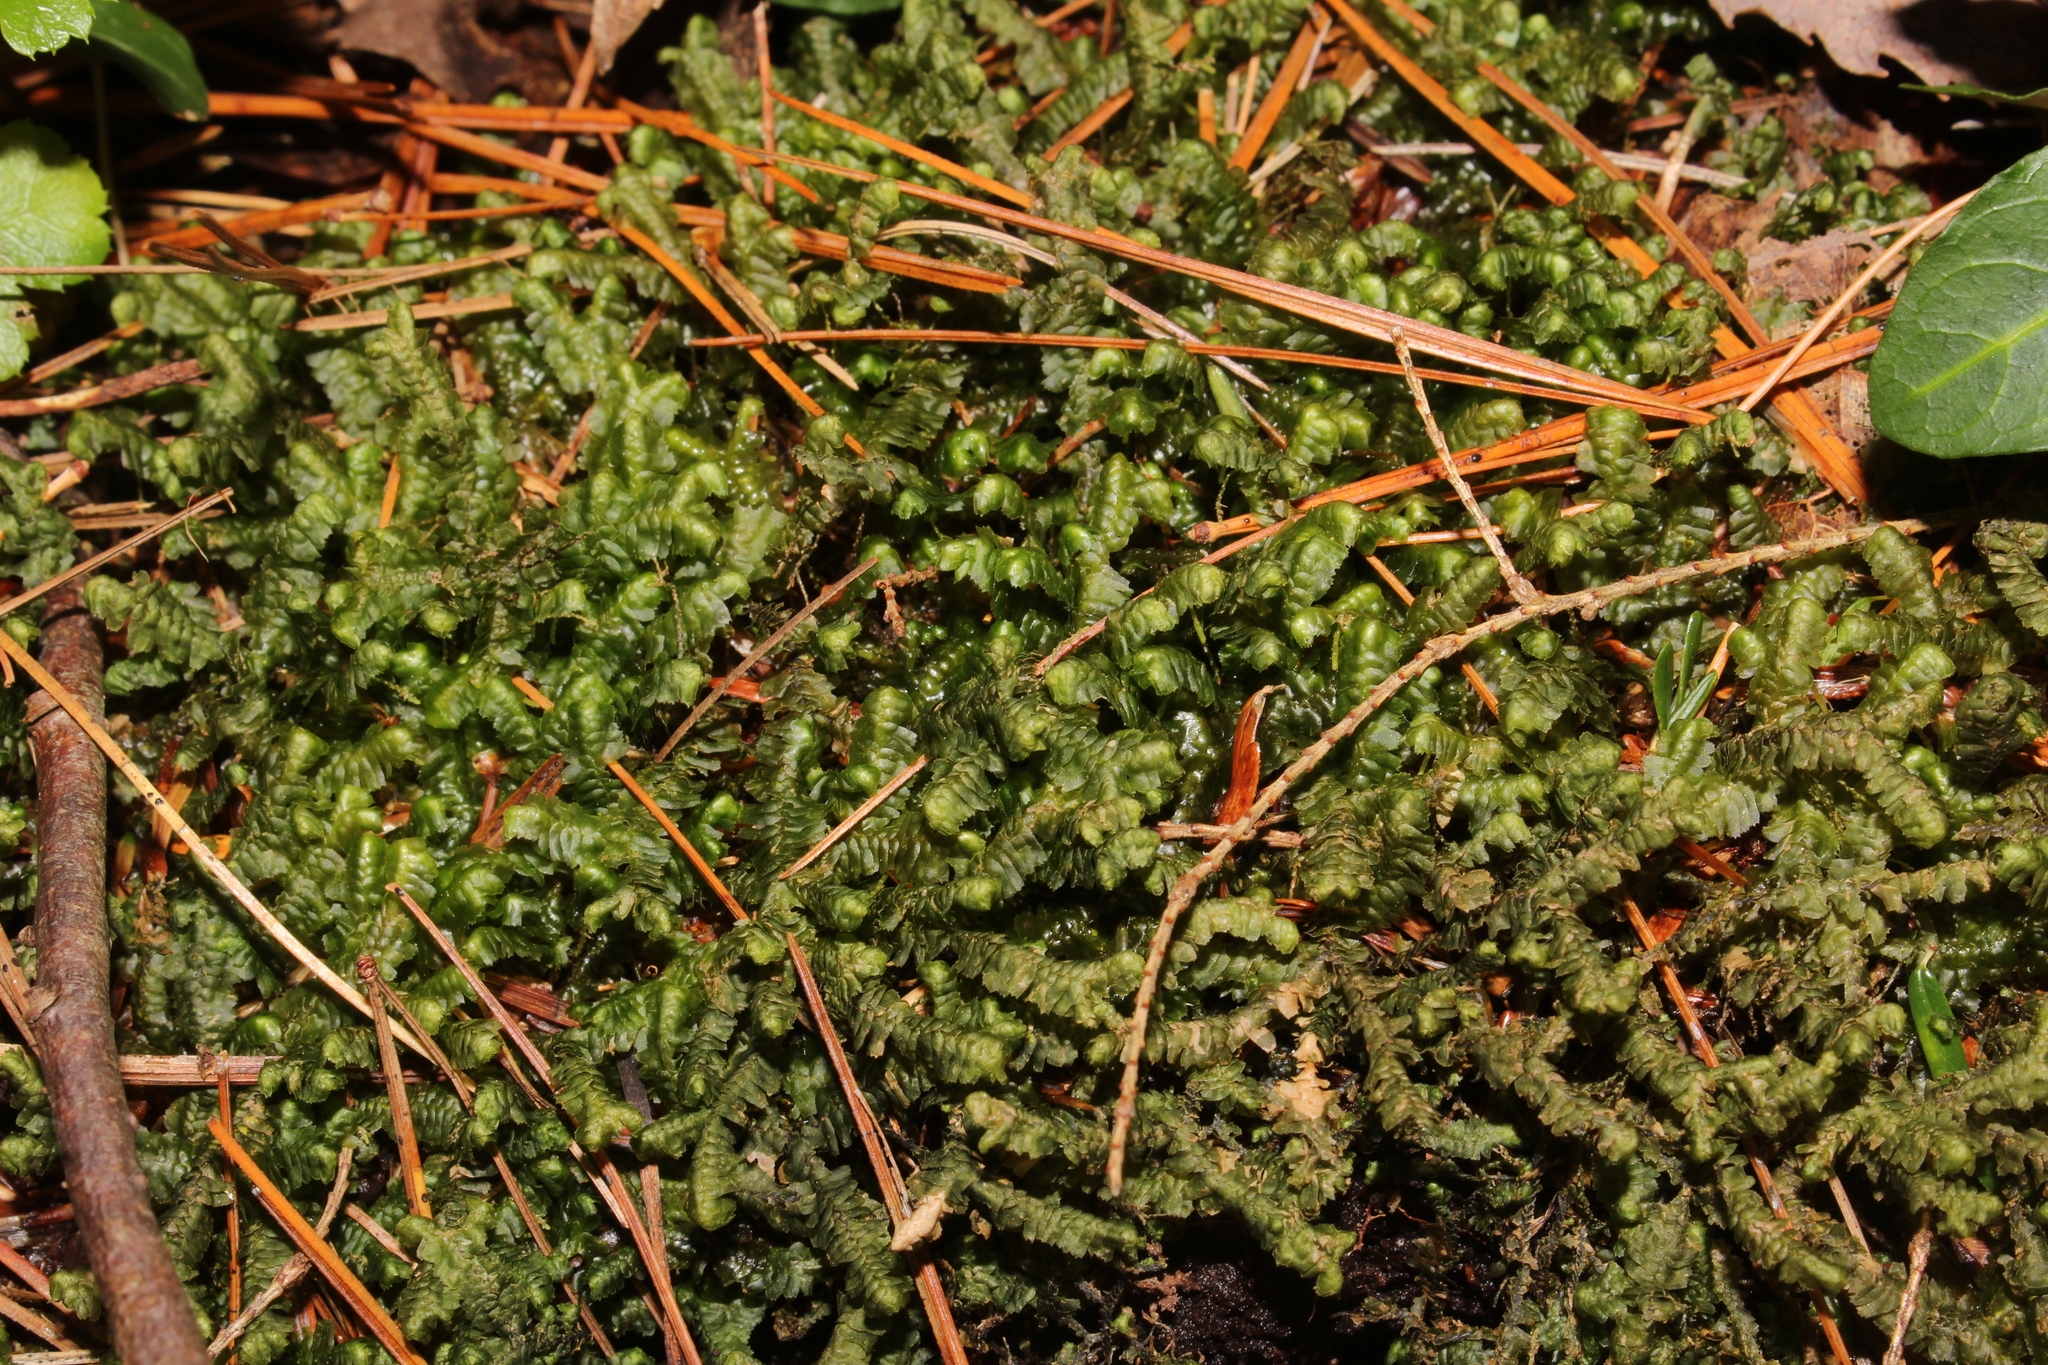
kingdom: Plantae
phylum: Marchantiophyta
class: Jungermanniopsida
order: Jungermanniales
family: Lepidoziaceae
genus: Bazzania
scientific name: Bazzania trilobata
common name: Three-lobed whipwort
